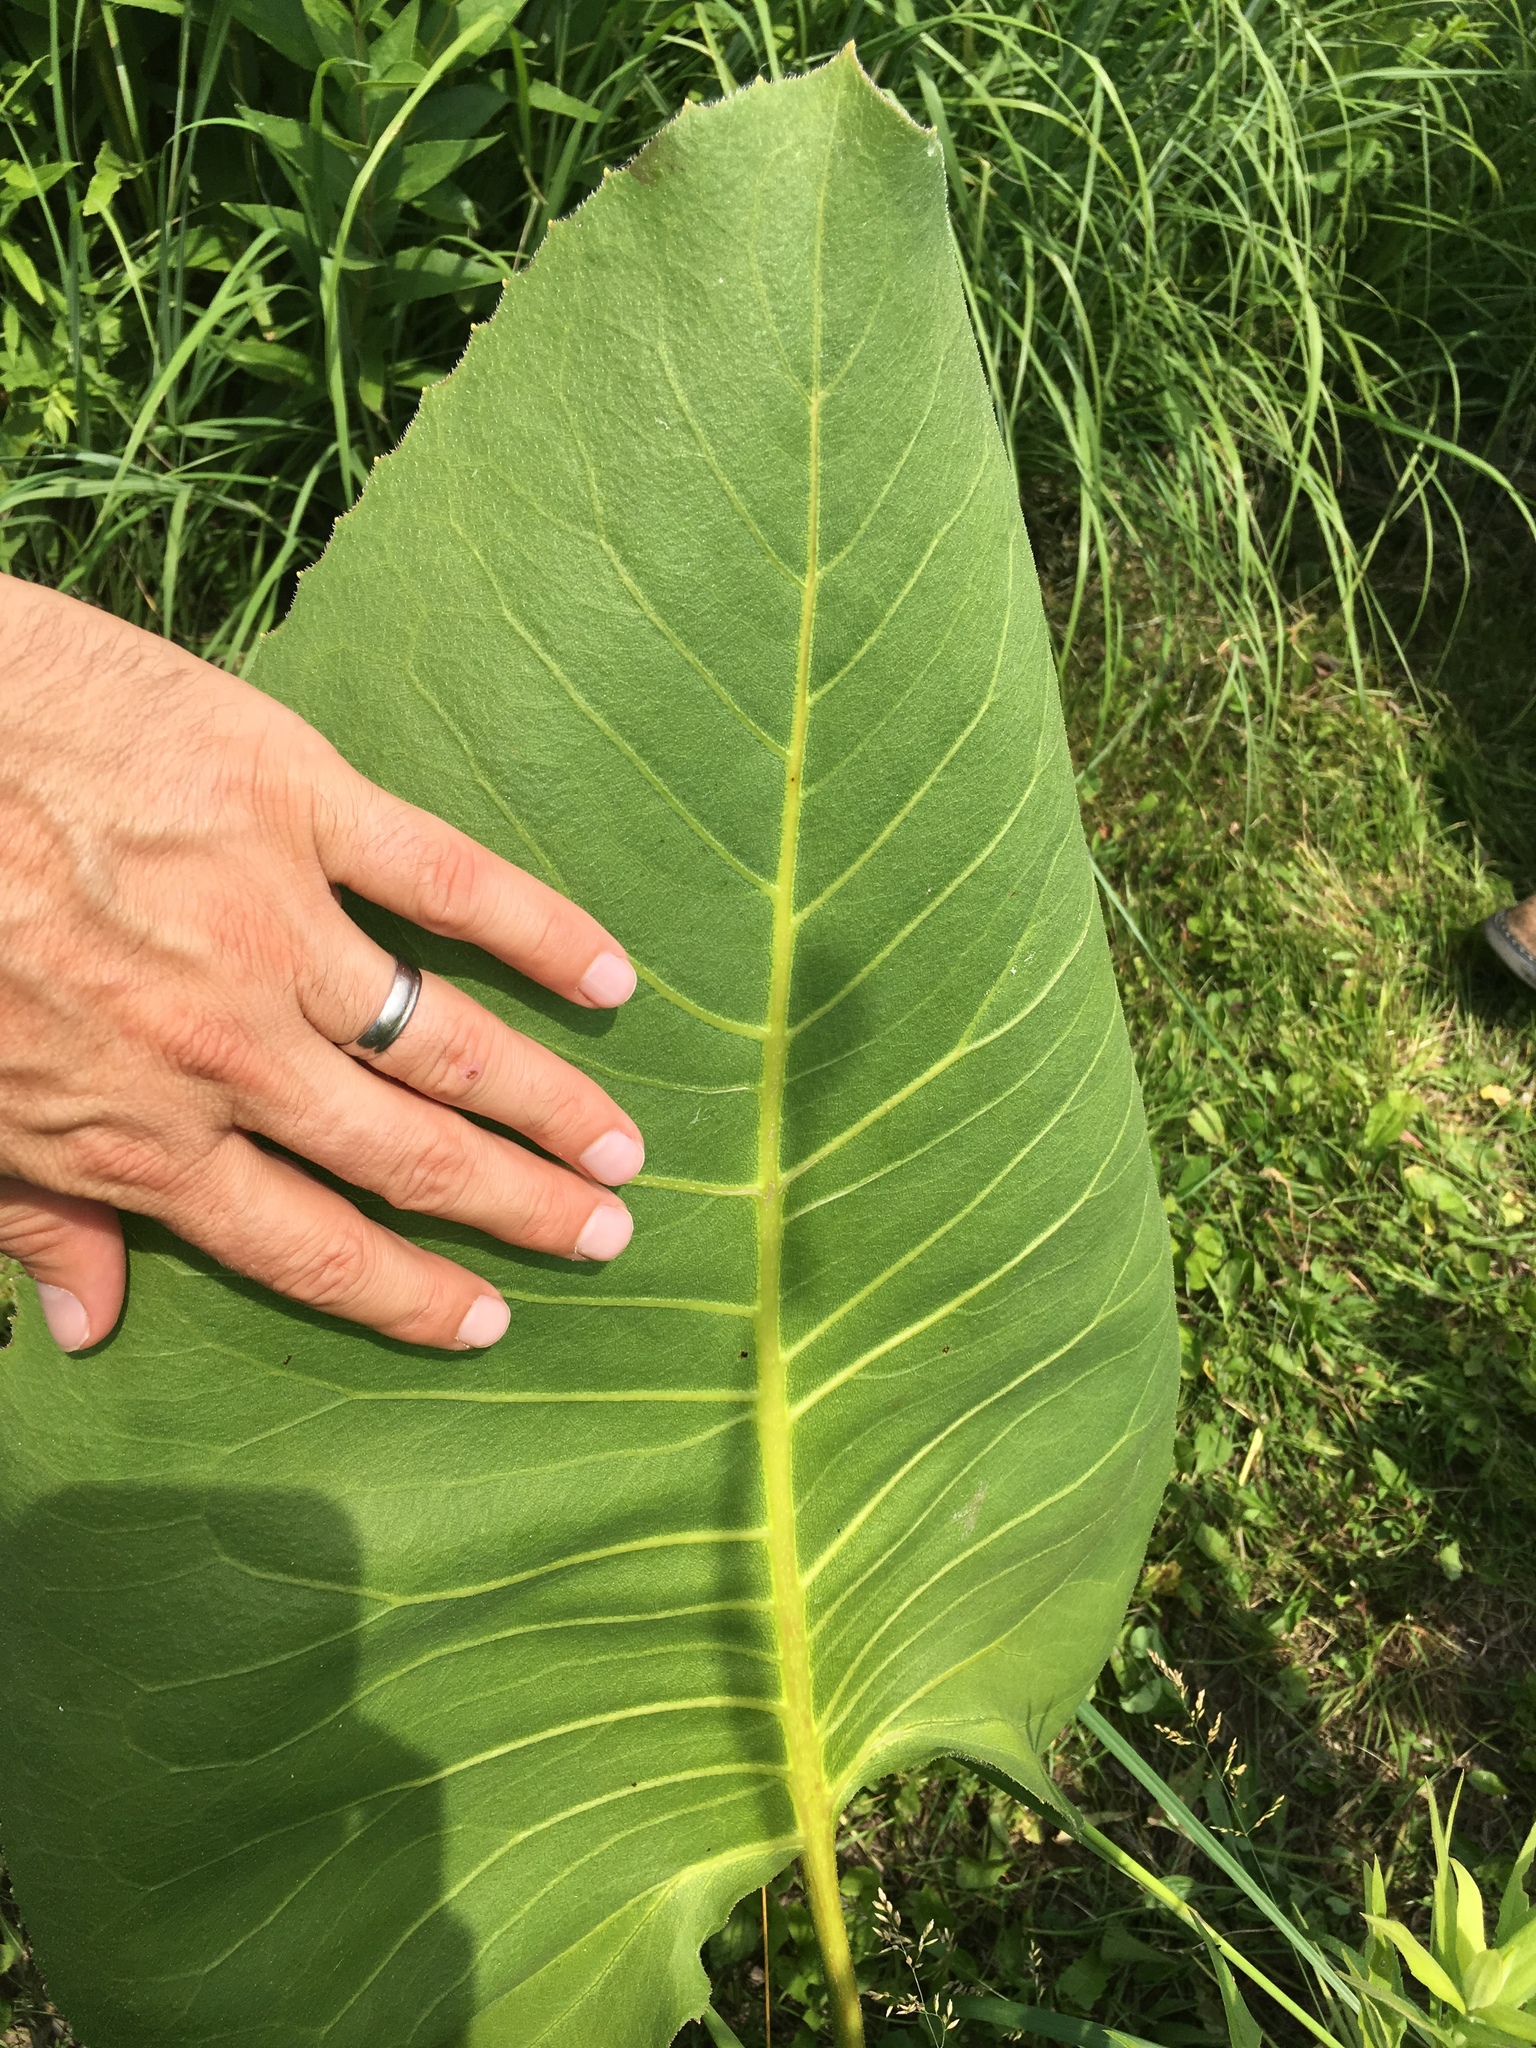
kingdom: Plantae
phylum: Tracheophyta
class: Magnoliopsida
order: Asterales
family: Asteraceae
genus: Silphium
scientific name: Silphium terebinthinaceum
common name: Basal-leaf rosinweed
